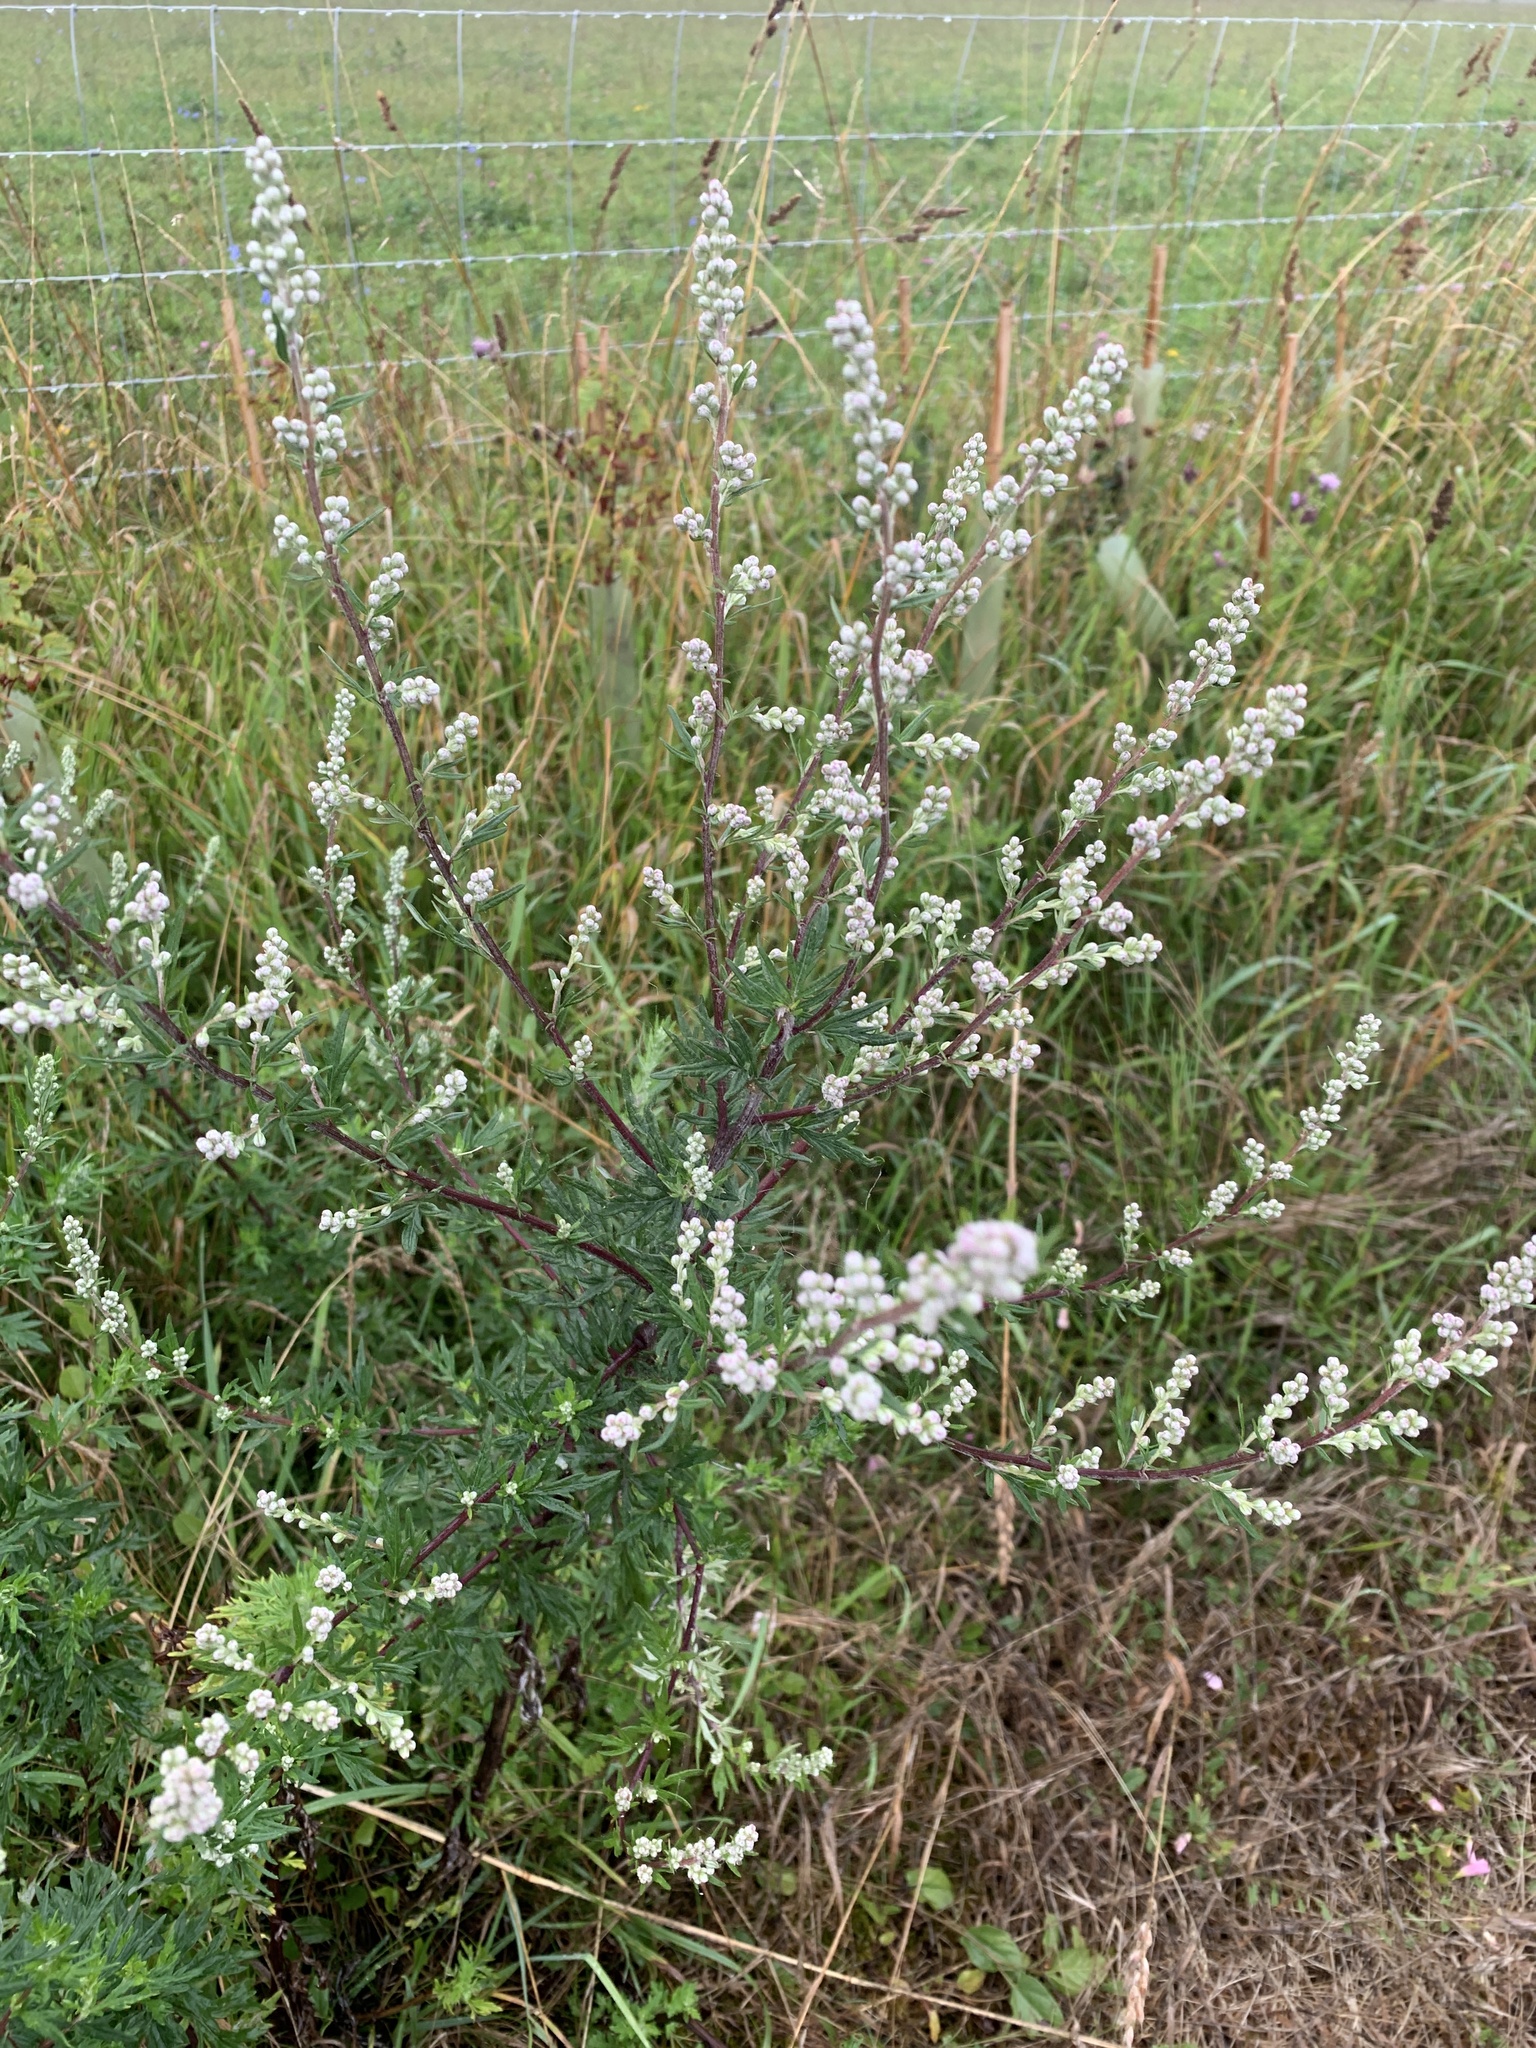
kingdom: Plantae
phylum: Tracheophyta
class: Magnoliopsida
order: Asterales
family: Asteraceae
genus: Artemisia
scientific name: Artemisia vulgaris
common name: Mugwort
